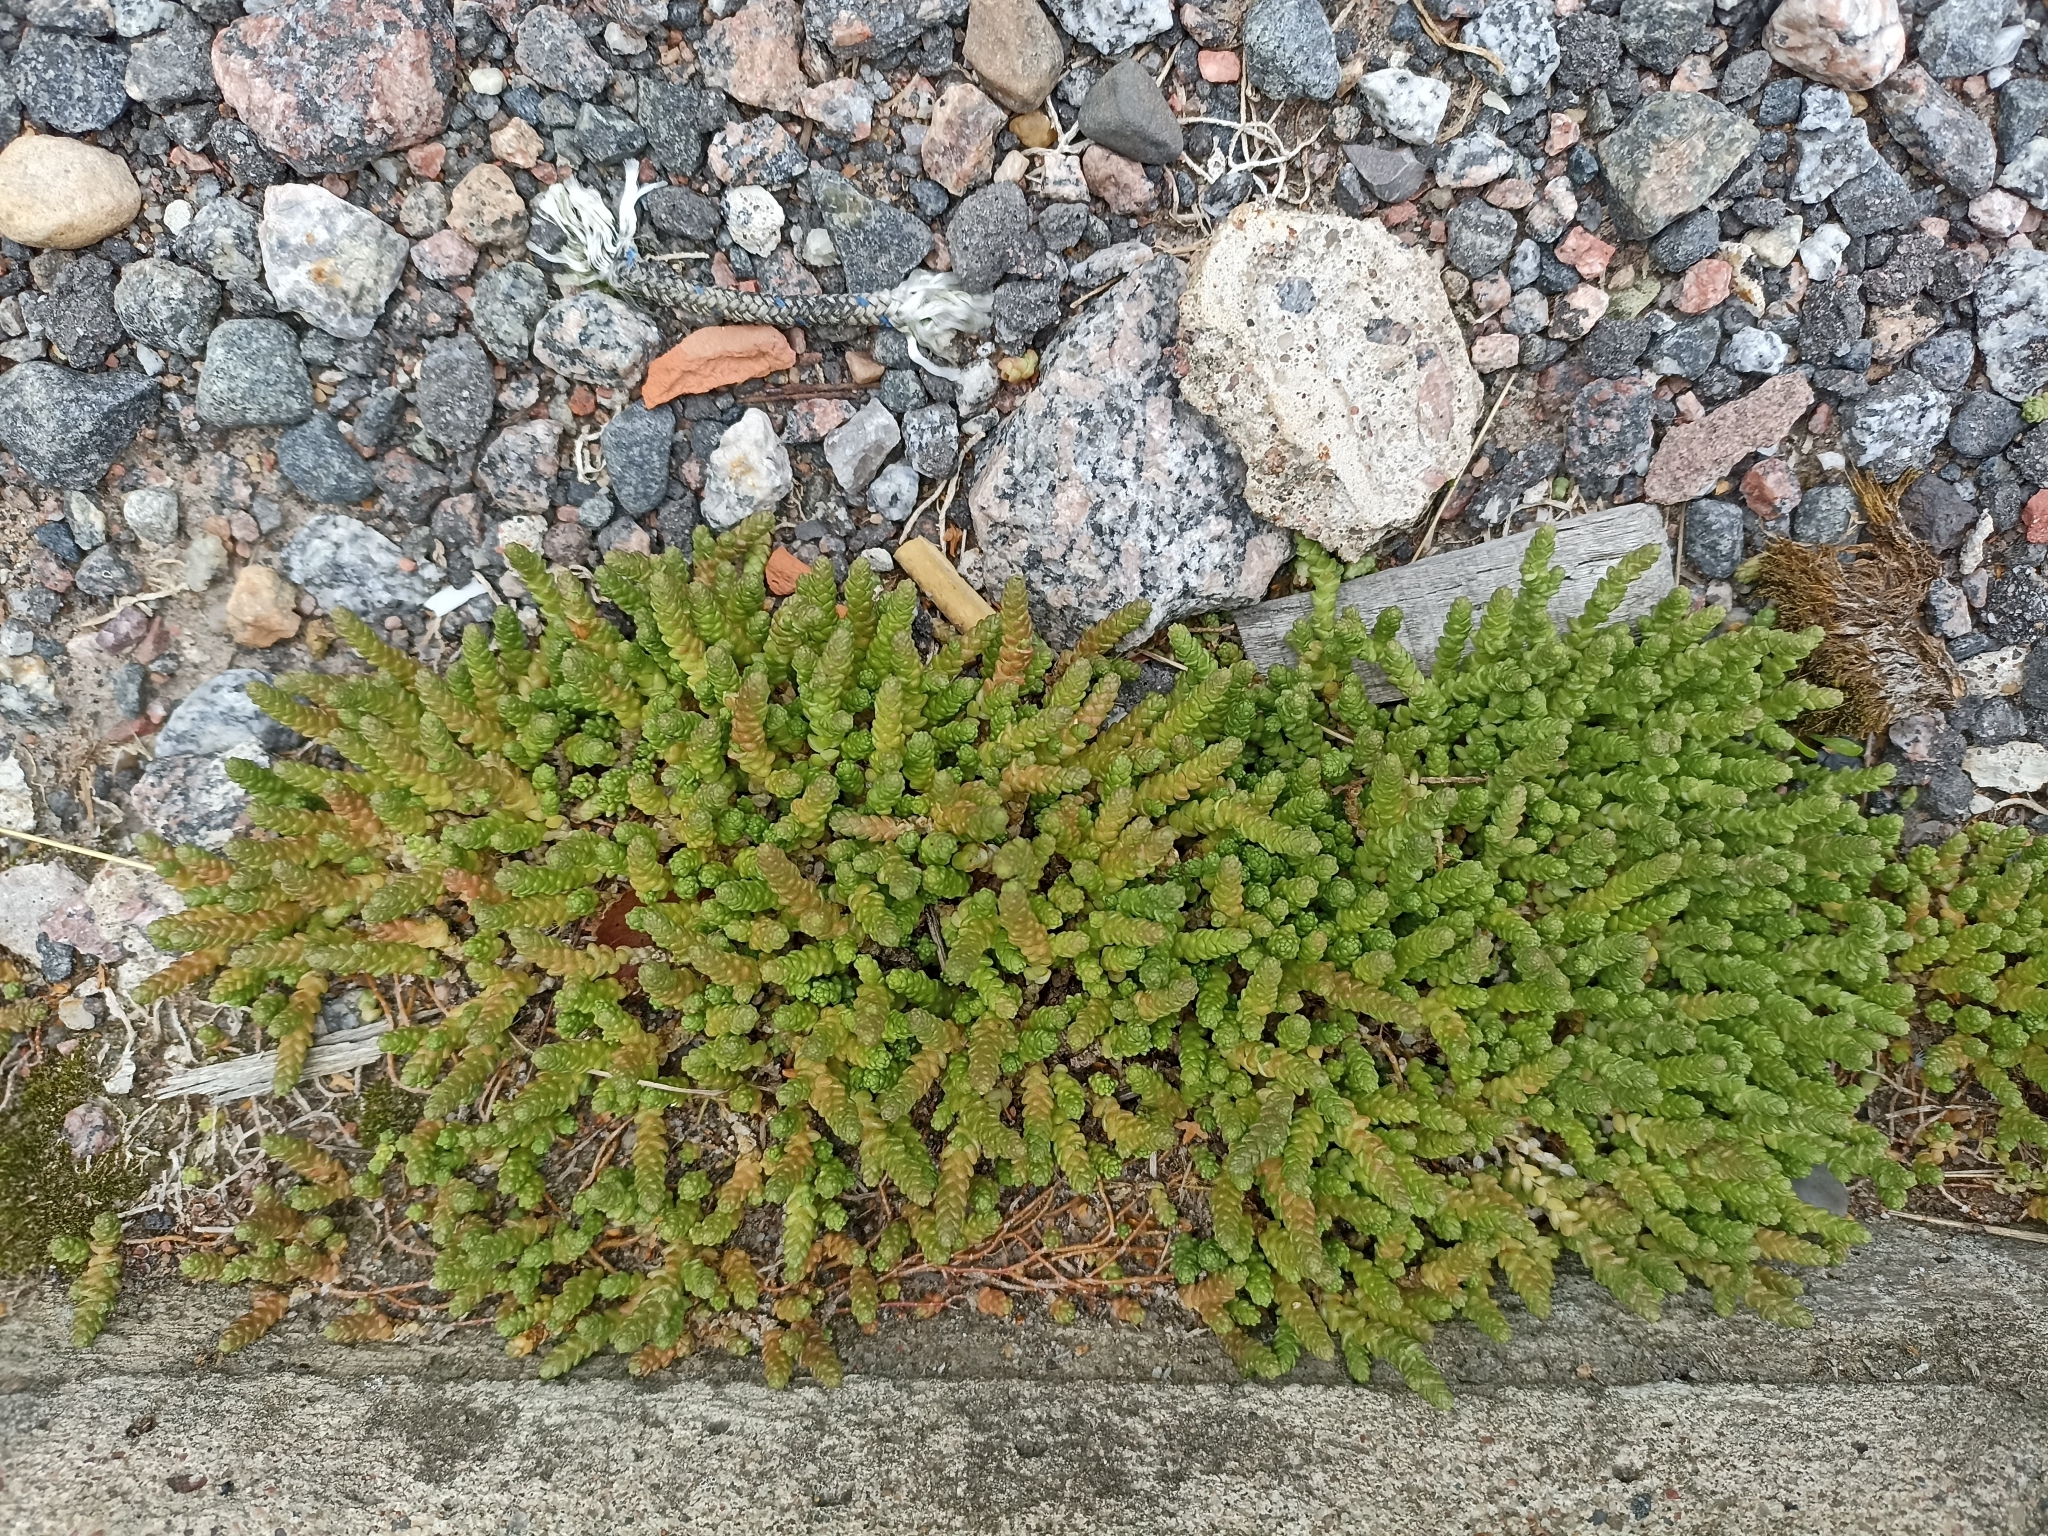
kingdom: Plantae
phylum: Tracheophyta
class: Magnoliopsida
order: Saxifragales
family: Crassulaceae
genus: Sedum
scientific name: Sedum acre
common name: Biting stonecrop
